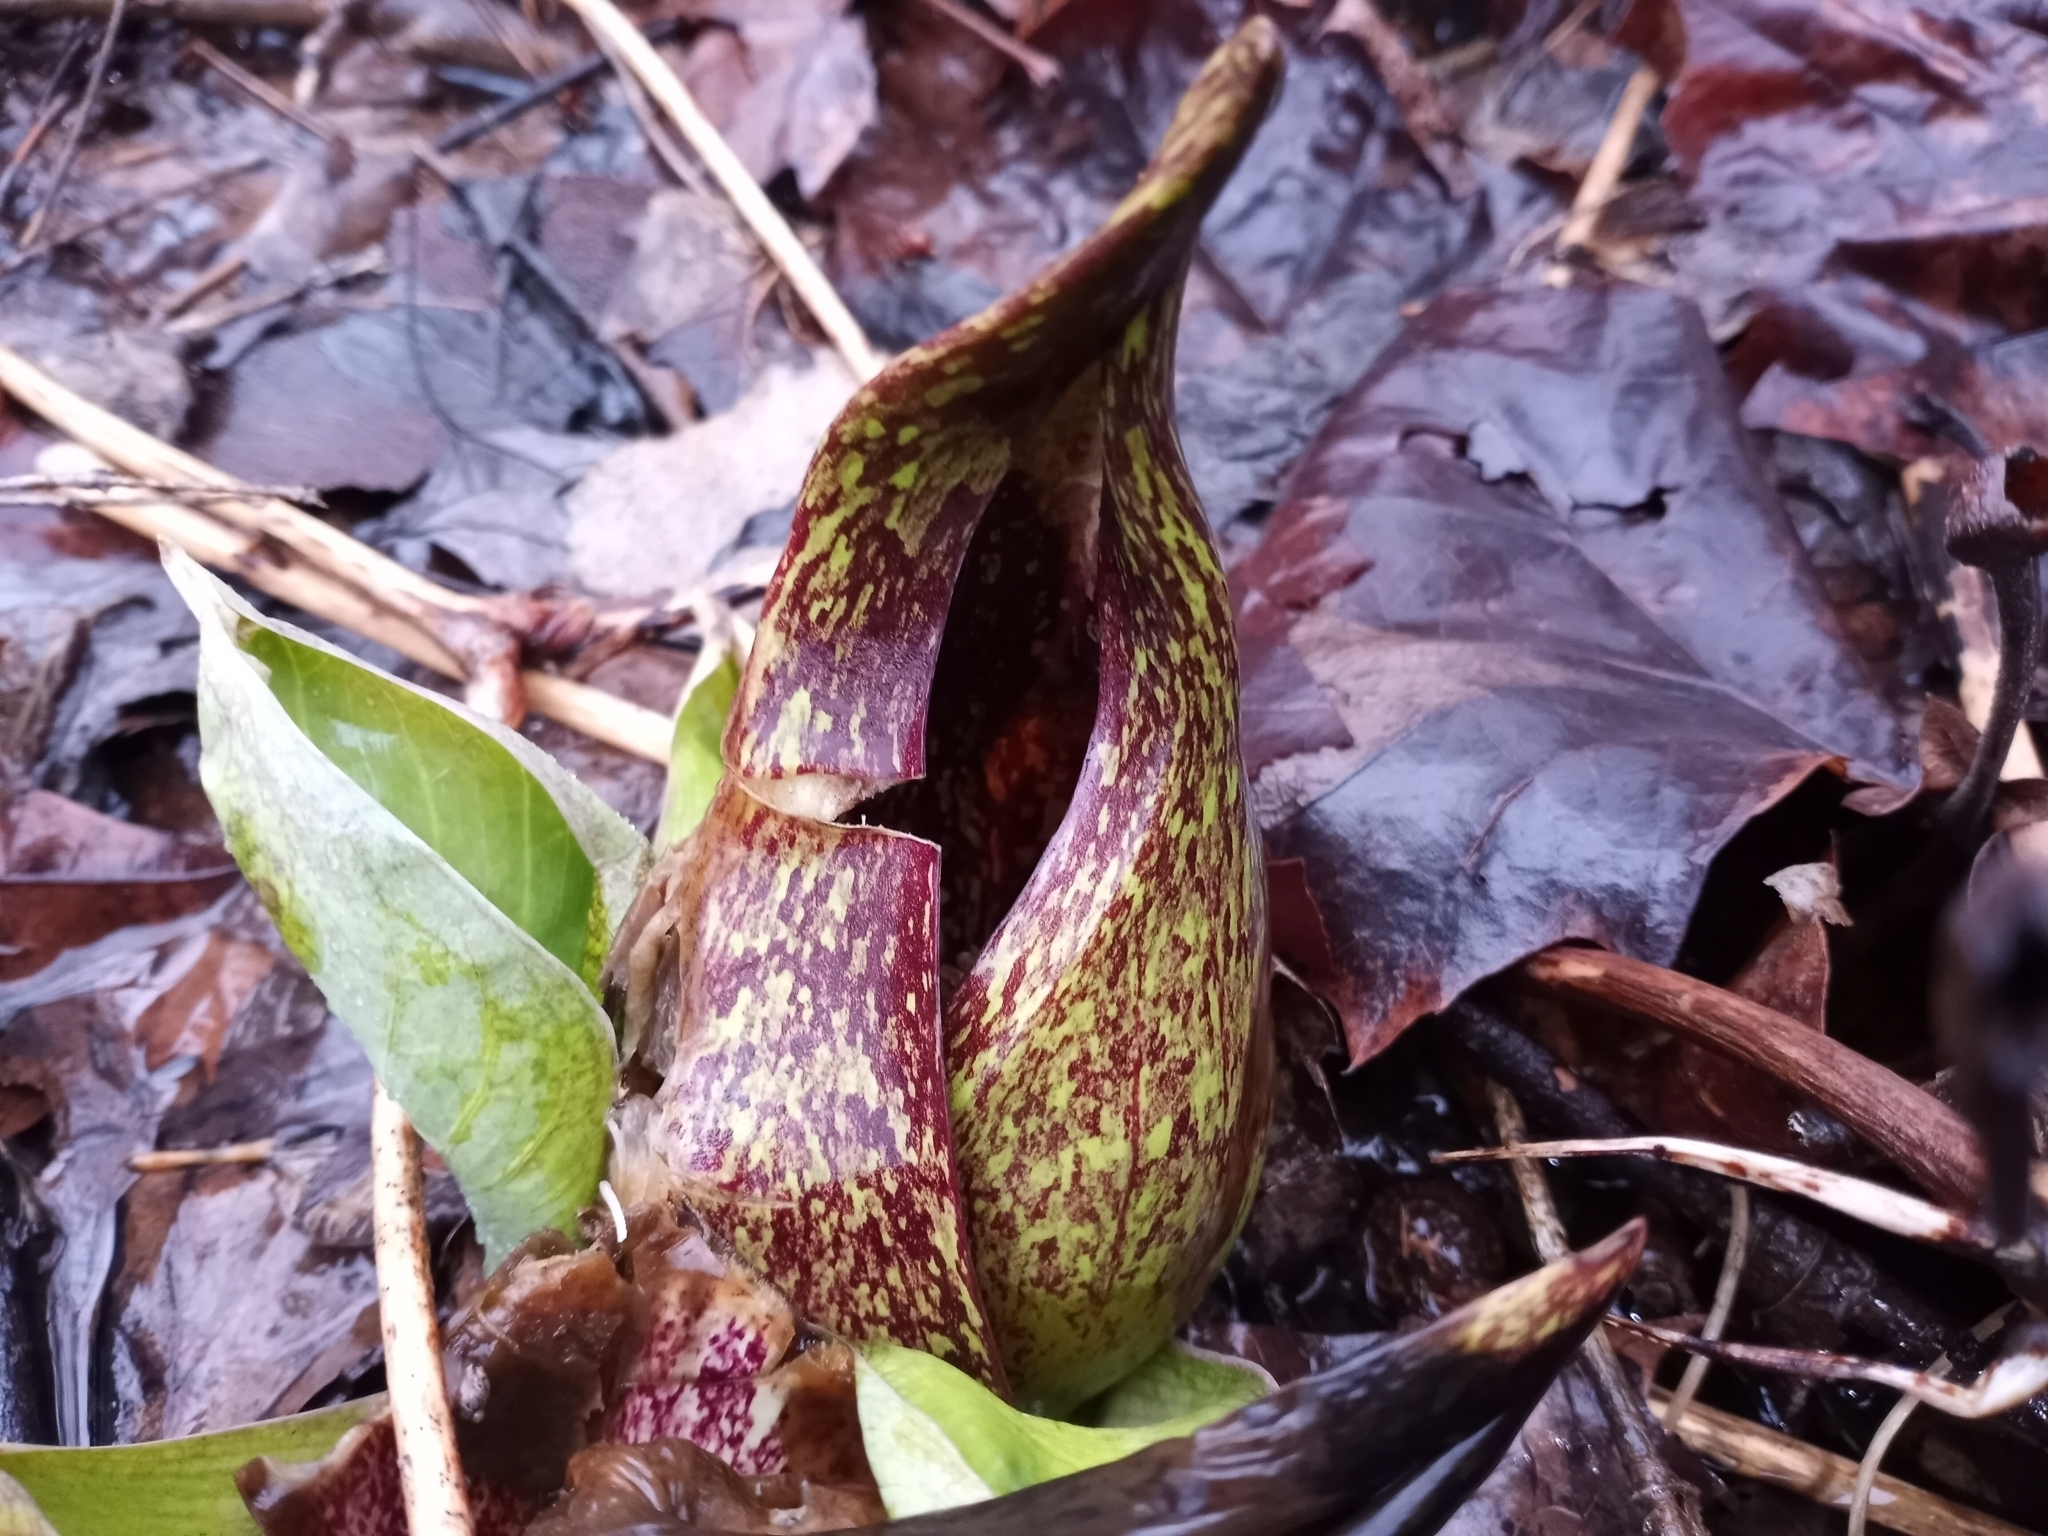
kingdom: Plantae
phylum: Tracheophyta
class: Liliopsida
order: Alismatales
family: Araceae
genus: Symplocarpus
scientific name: Symplocarpus foetidus
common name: Eastern skunk cabbage
